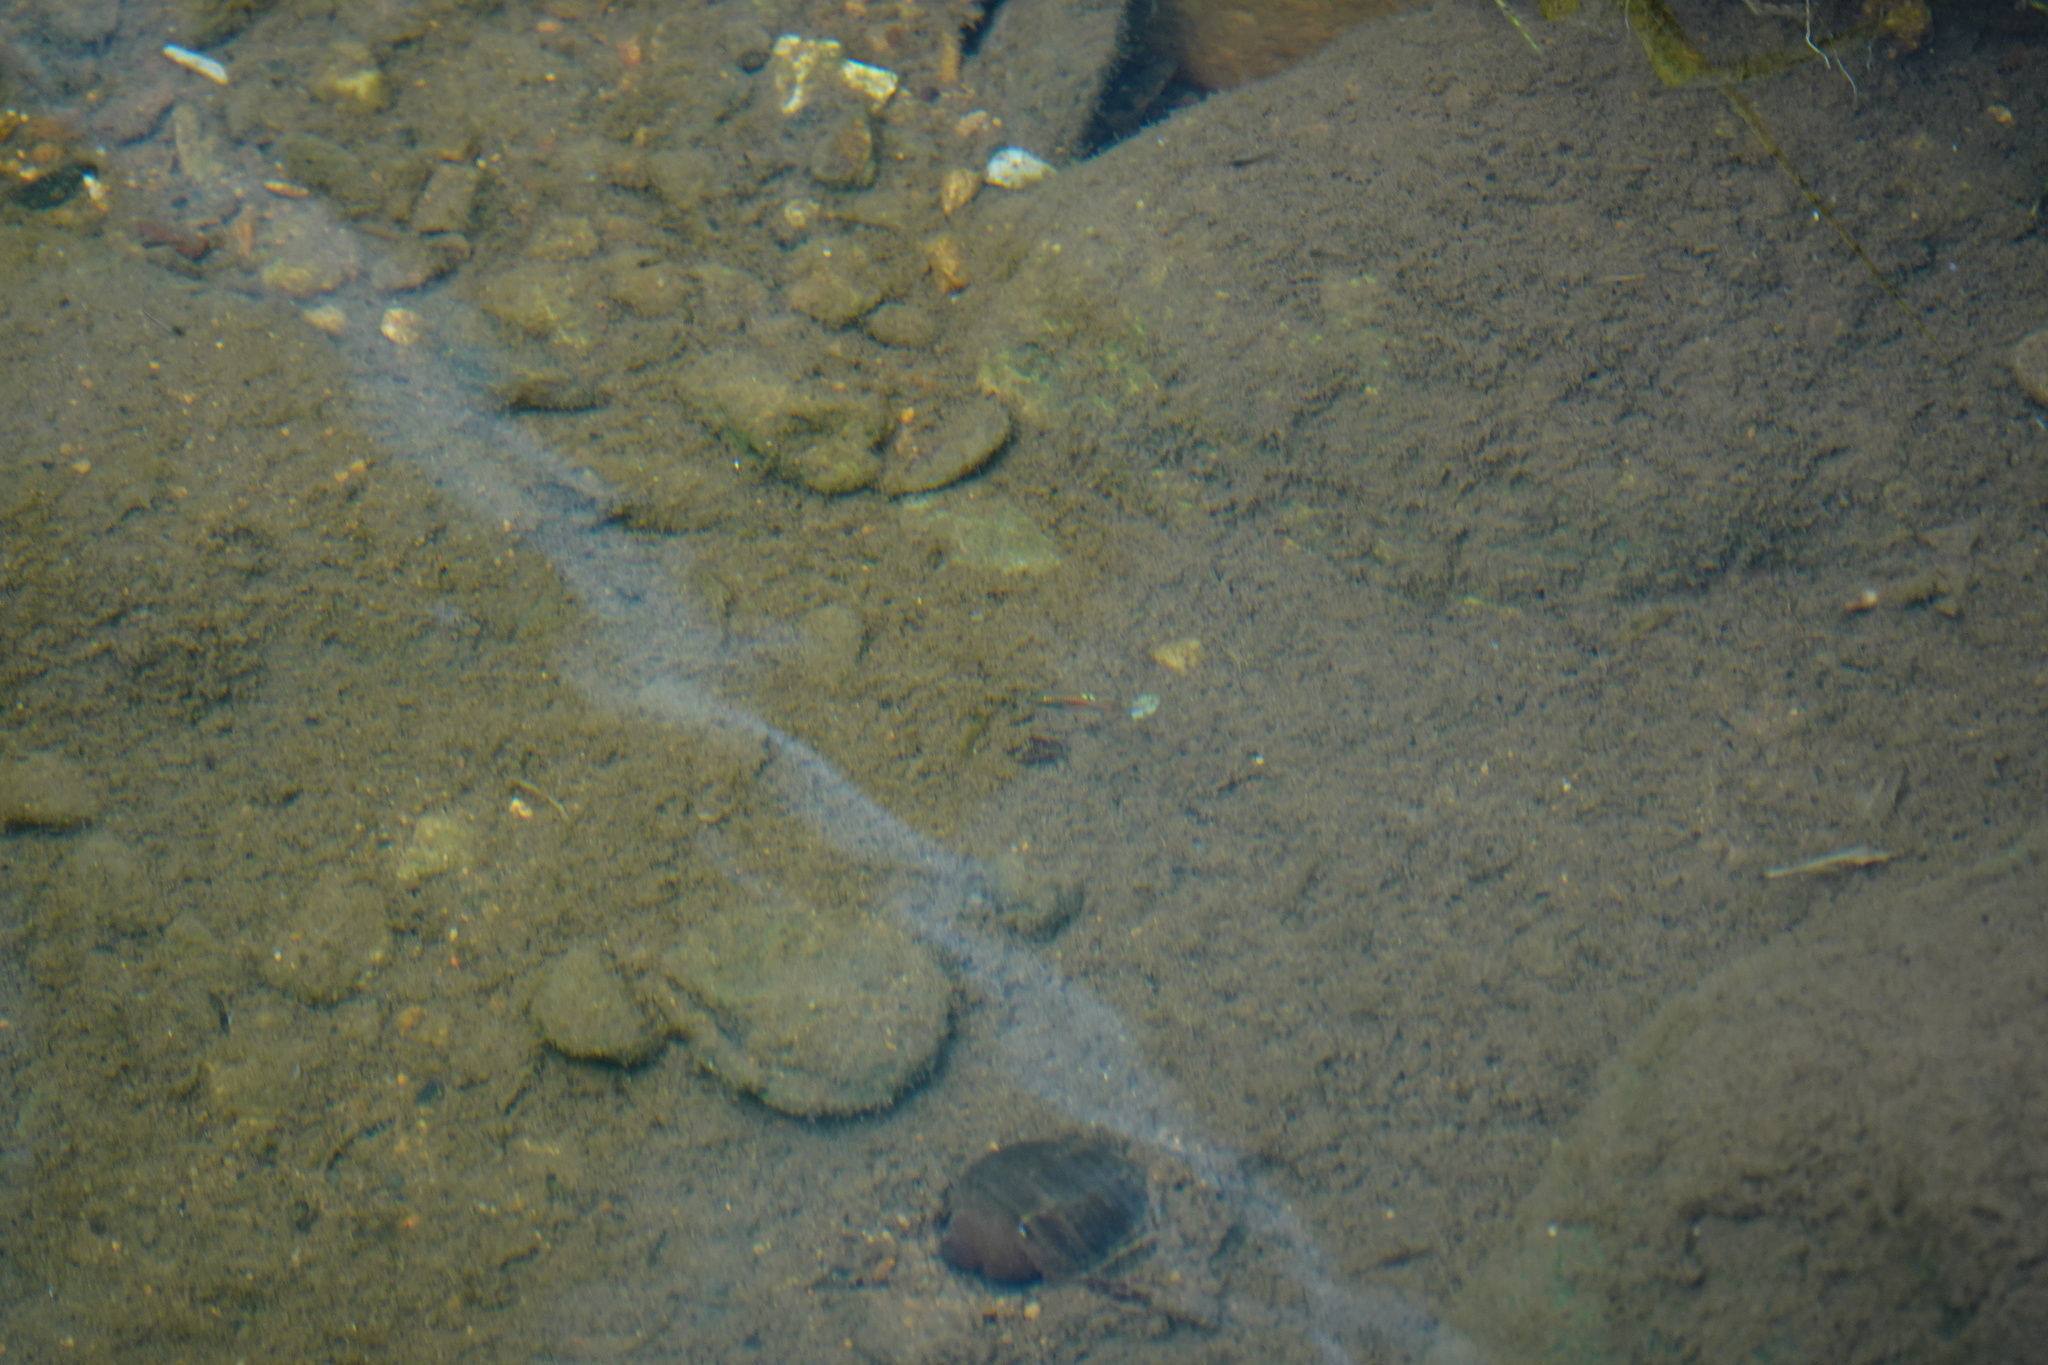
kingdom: Animalia
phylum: Chordata
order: Cyprinodontiformes
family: Poeciliidae
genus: Poecilia
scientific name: Poecilia reticulata
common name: Guppy
